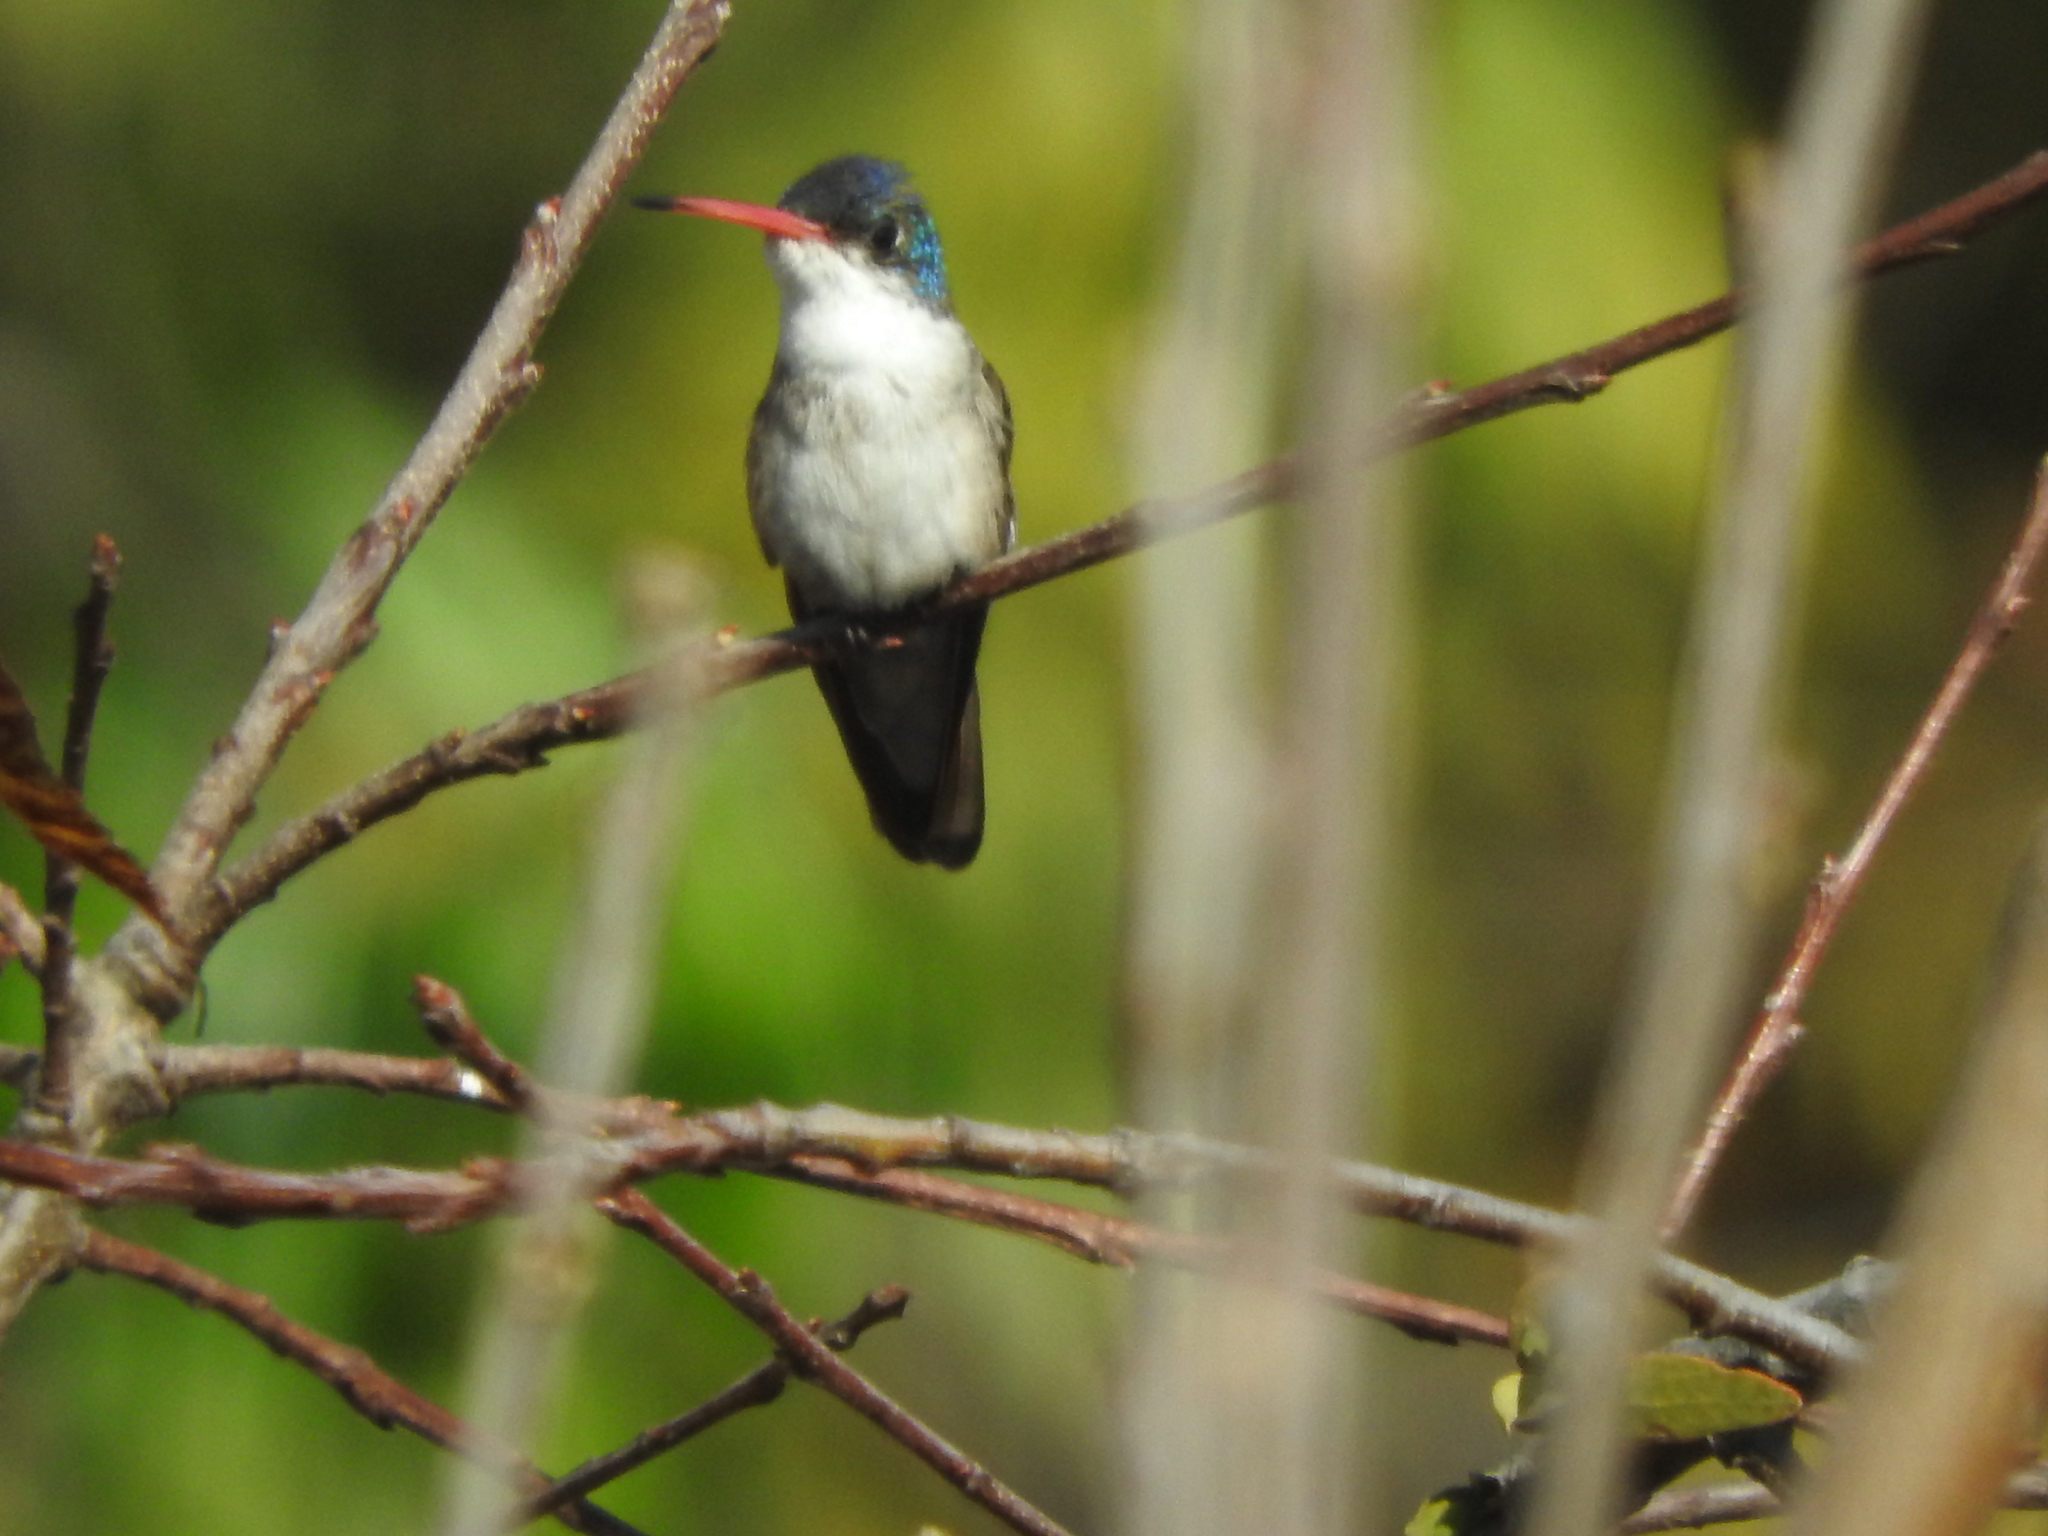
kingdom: Animalia
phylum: Chordata
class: Aves
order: Apodiformes
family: Trochilidae
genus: Leucolia
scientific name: Leucolia violiceps
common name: Violet-crowned hummingbird
